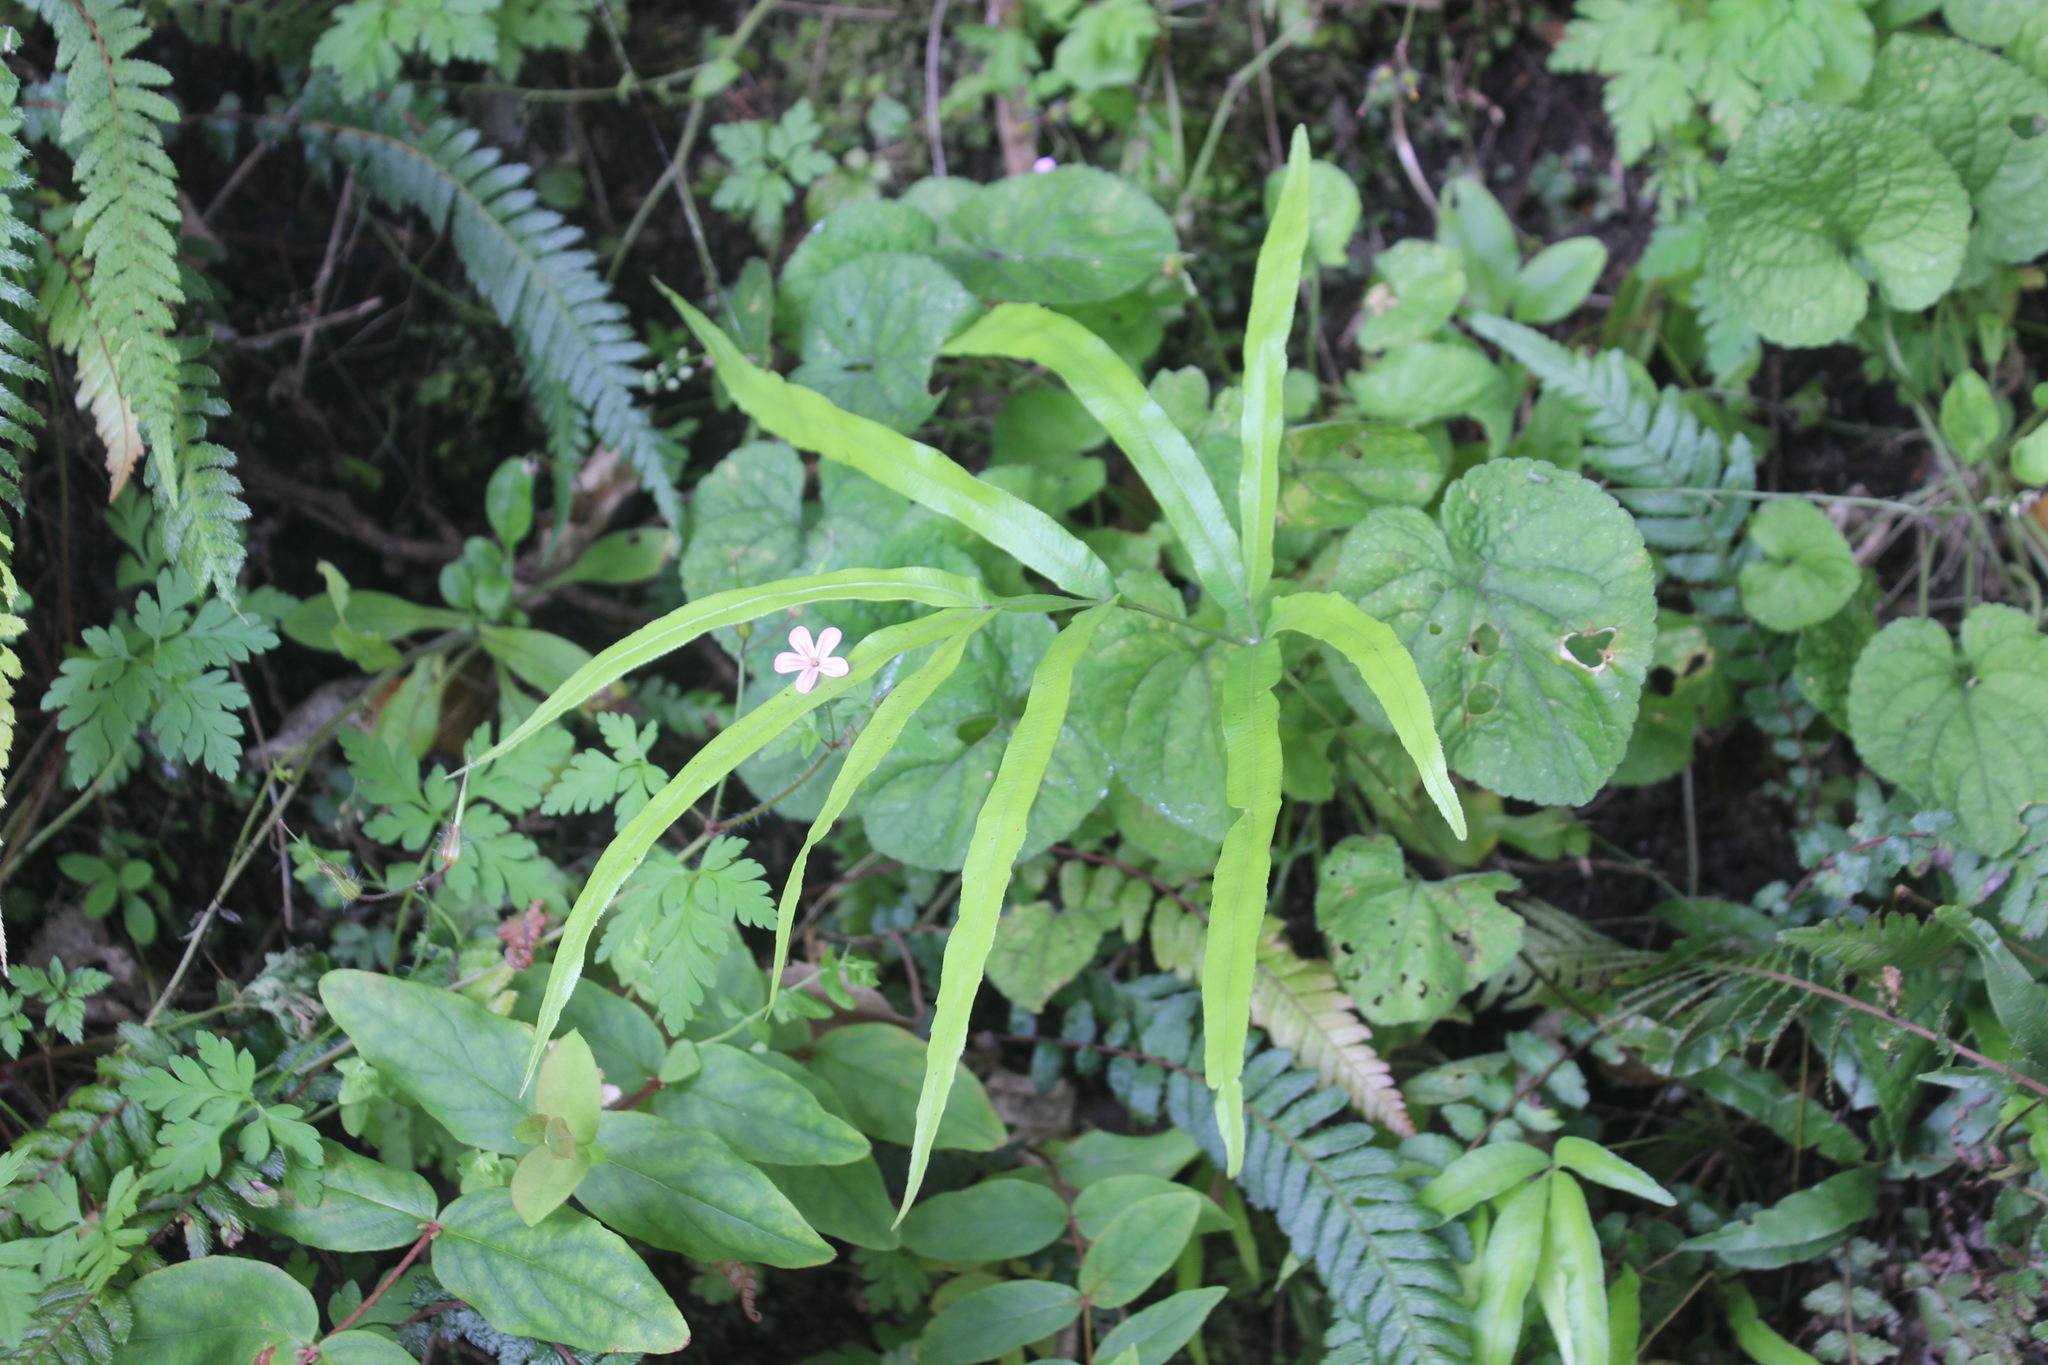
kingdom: Plantae
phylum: Tracheophyta
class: Polypodiopsida
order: Polypodiales
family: Pteridaceae
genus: Pteris
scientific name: Pteris cretica
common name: Ribbon fern
